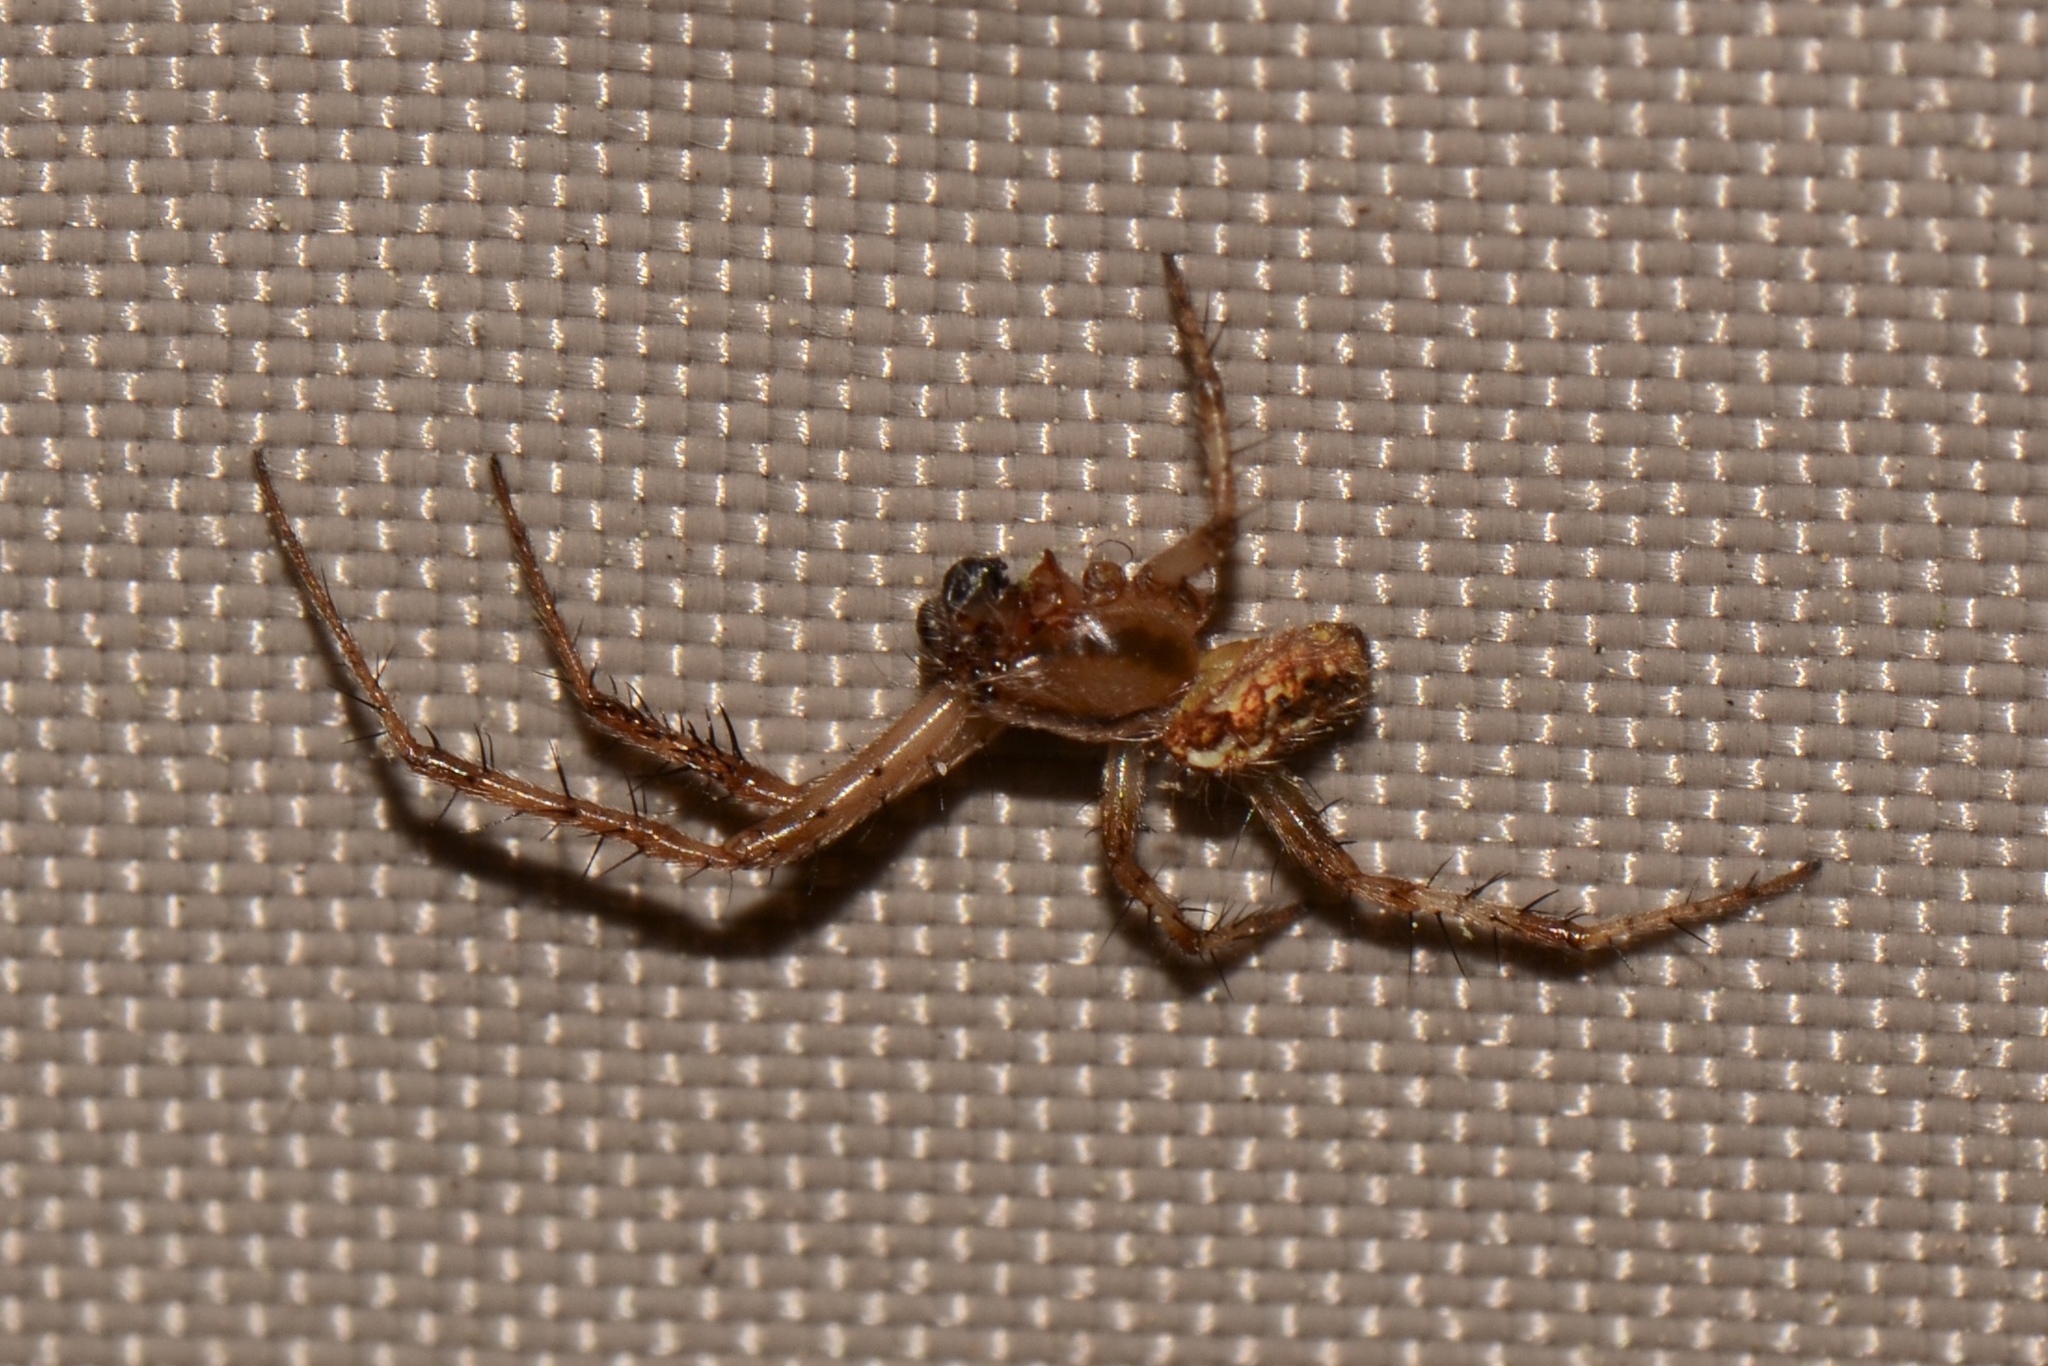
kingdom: Animalia
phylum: Arthropoda
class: Arachnida
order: Araneae
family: Araneidae
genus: Neoscona
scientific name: Neoscona arabesca
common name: Orb weavers
